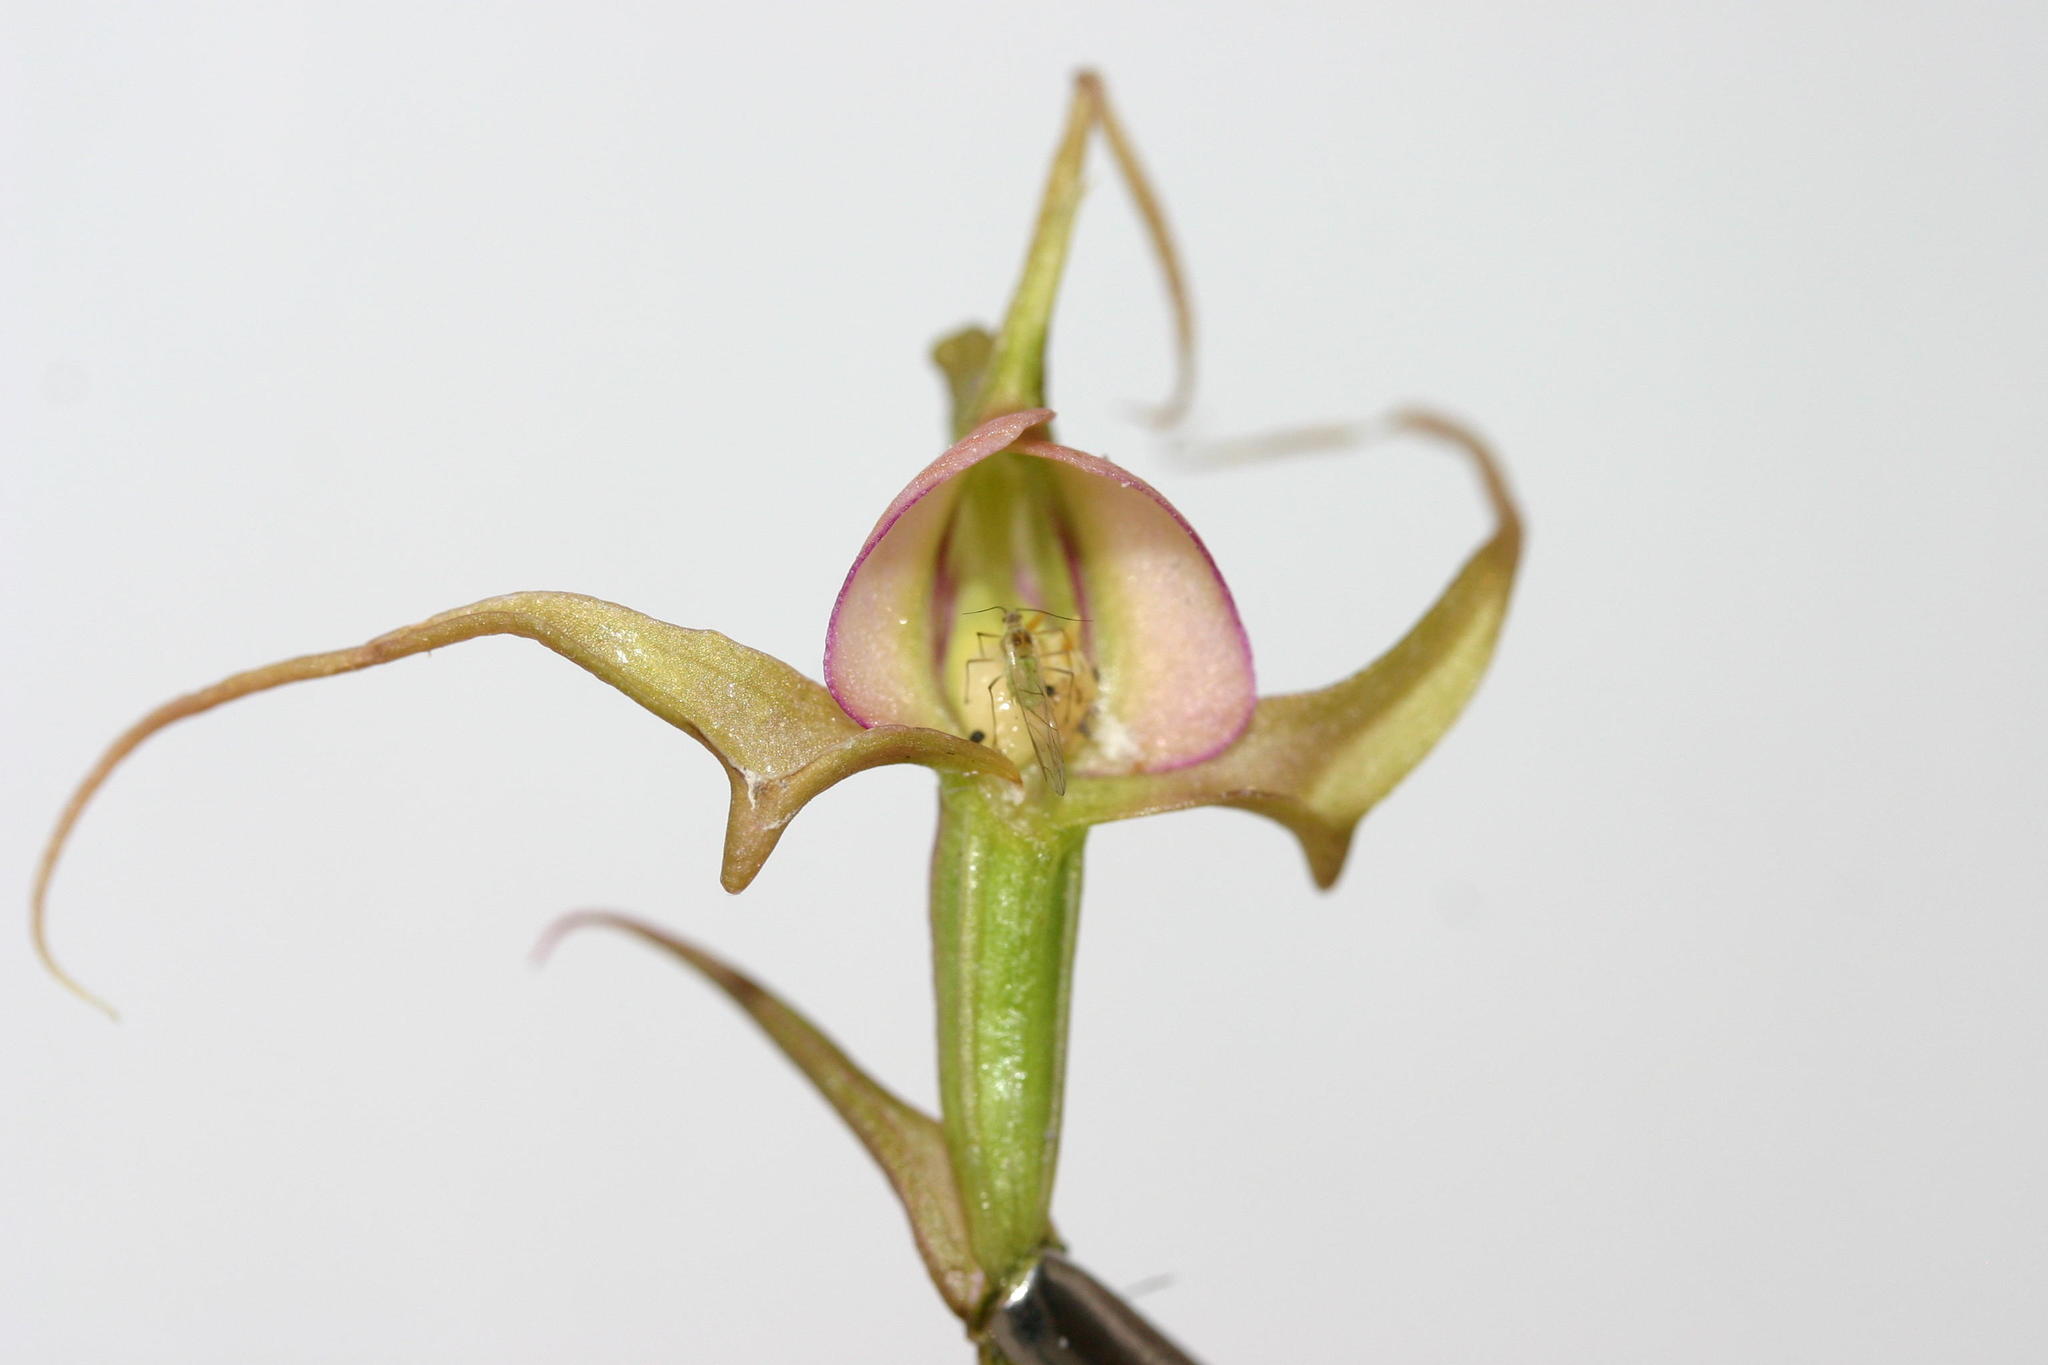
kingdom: Plantae
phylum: Tracheophyta
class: Liliopsida
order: Asparagales
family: Orchidaceae
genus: Disperis
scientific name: Disperis capensis
